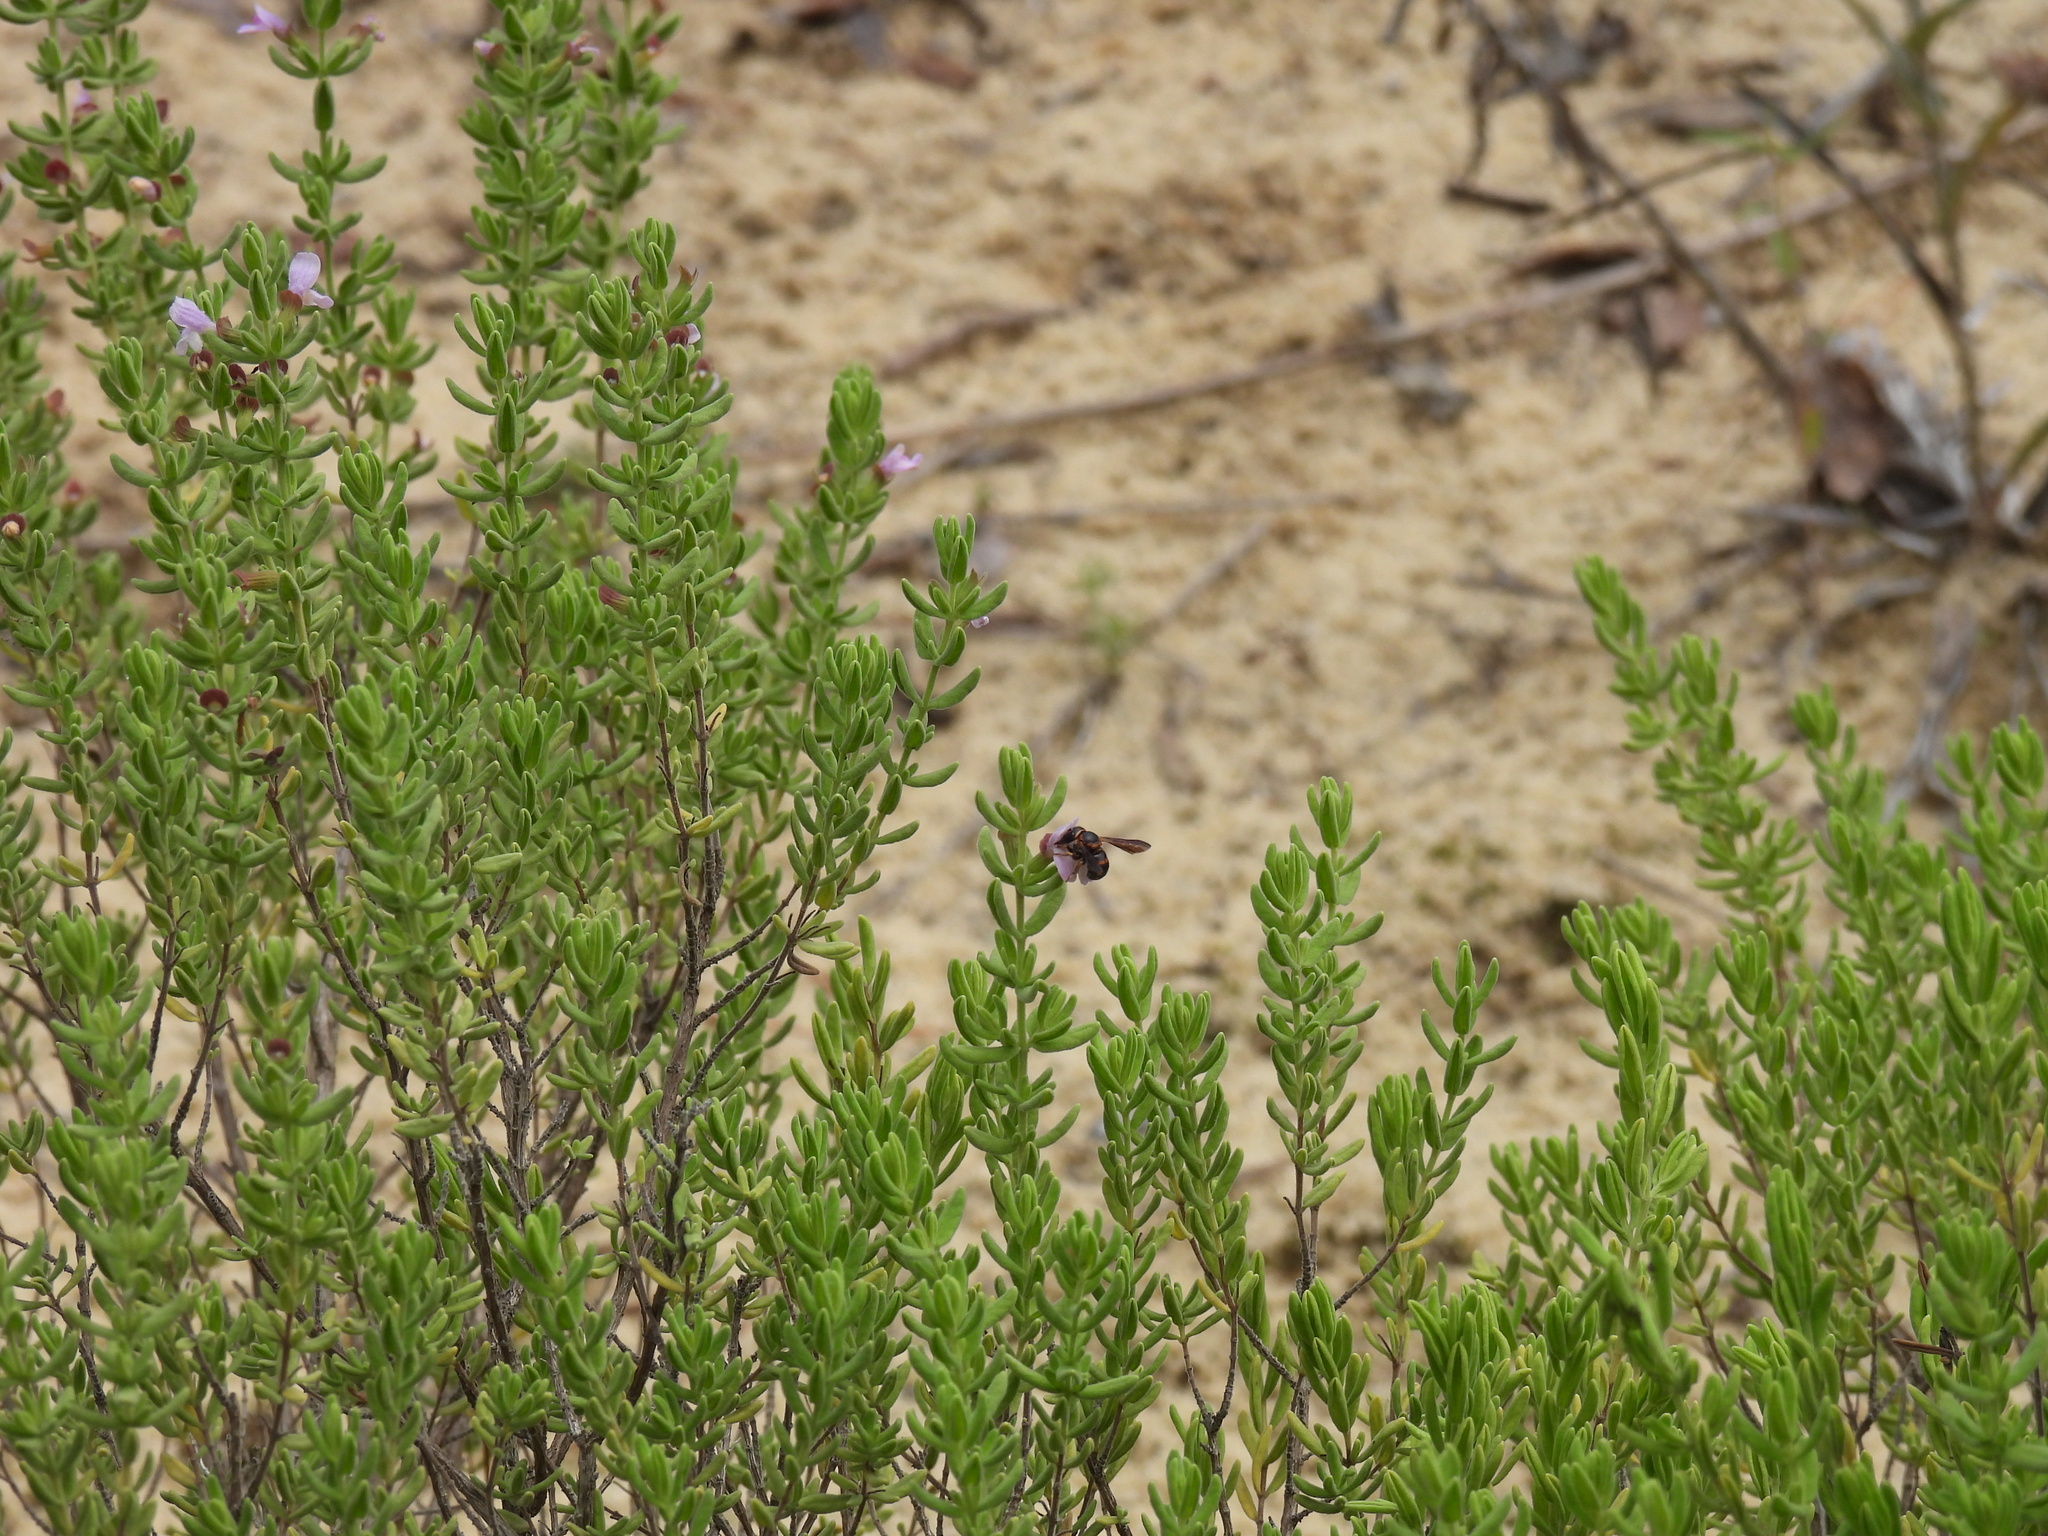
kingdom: Animalia
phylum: Arthropoda
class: Insecta
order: Hymenoptera
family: Megachilidae
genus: Loyolanthidium
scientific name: Loyolanthidium
